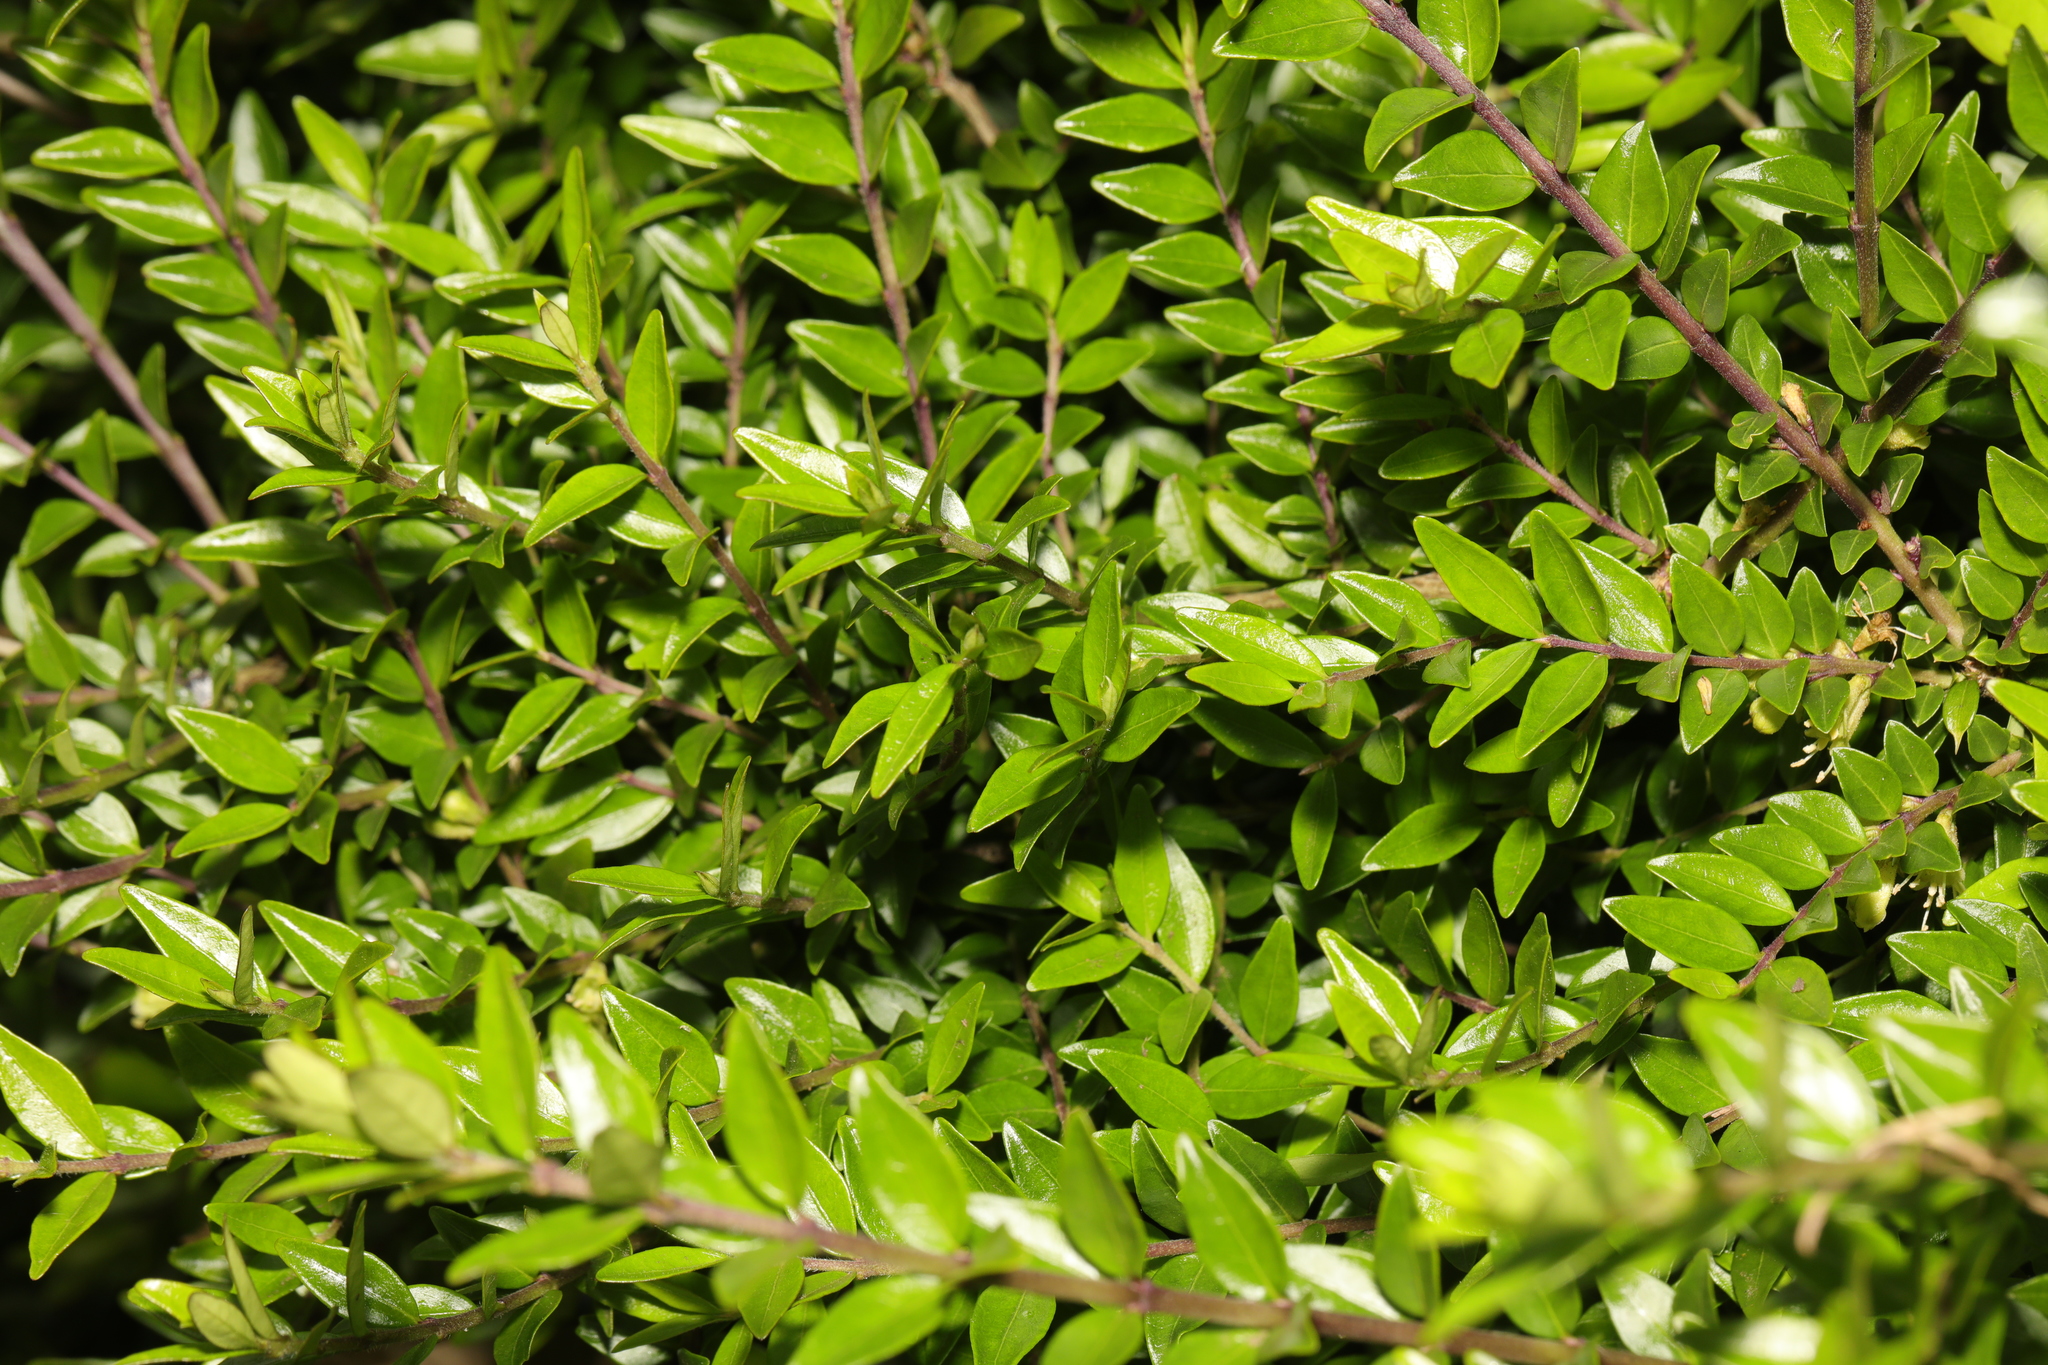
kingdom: Plantae
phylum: Tracheophyta
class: Magnoliopsida
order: Dipsacales
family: Caprifoliaceae
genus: Lonicera
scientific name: Lonicera pileata
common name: Box-leaved honeysuckle
